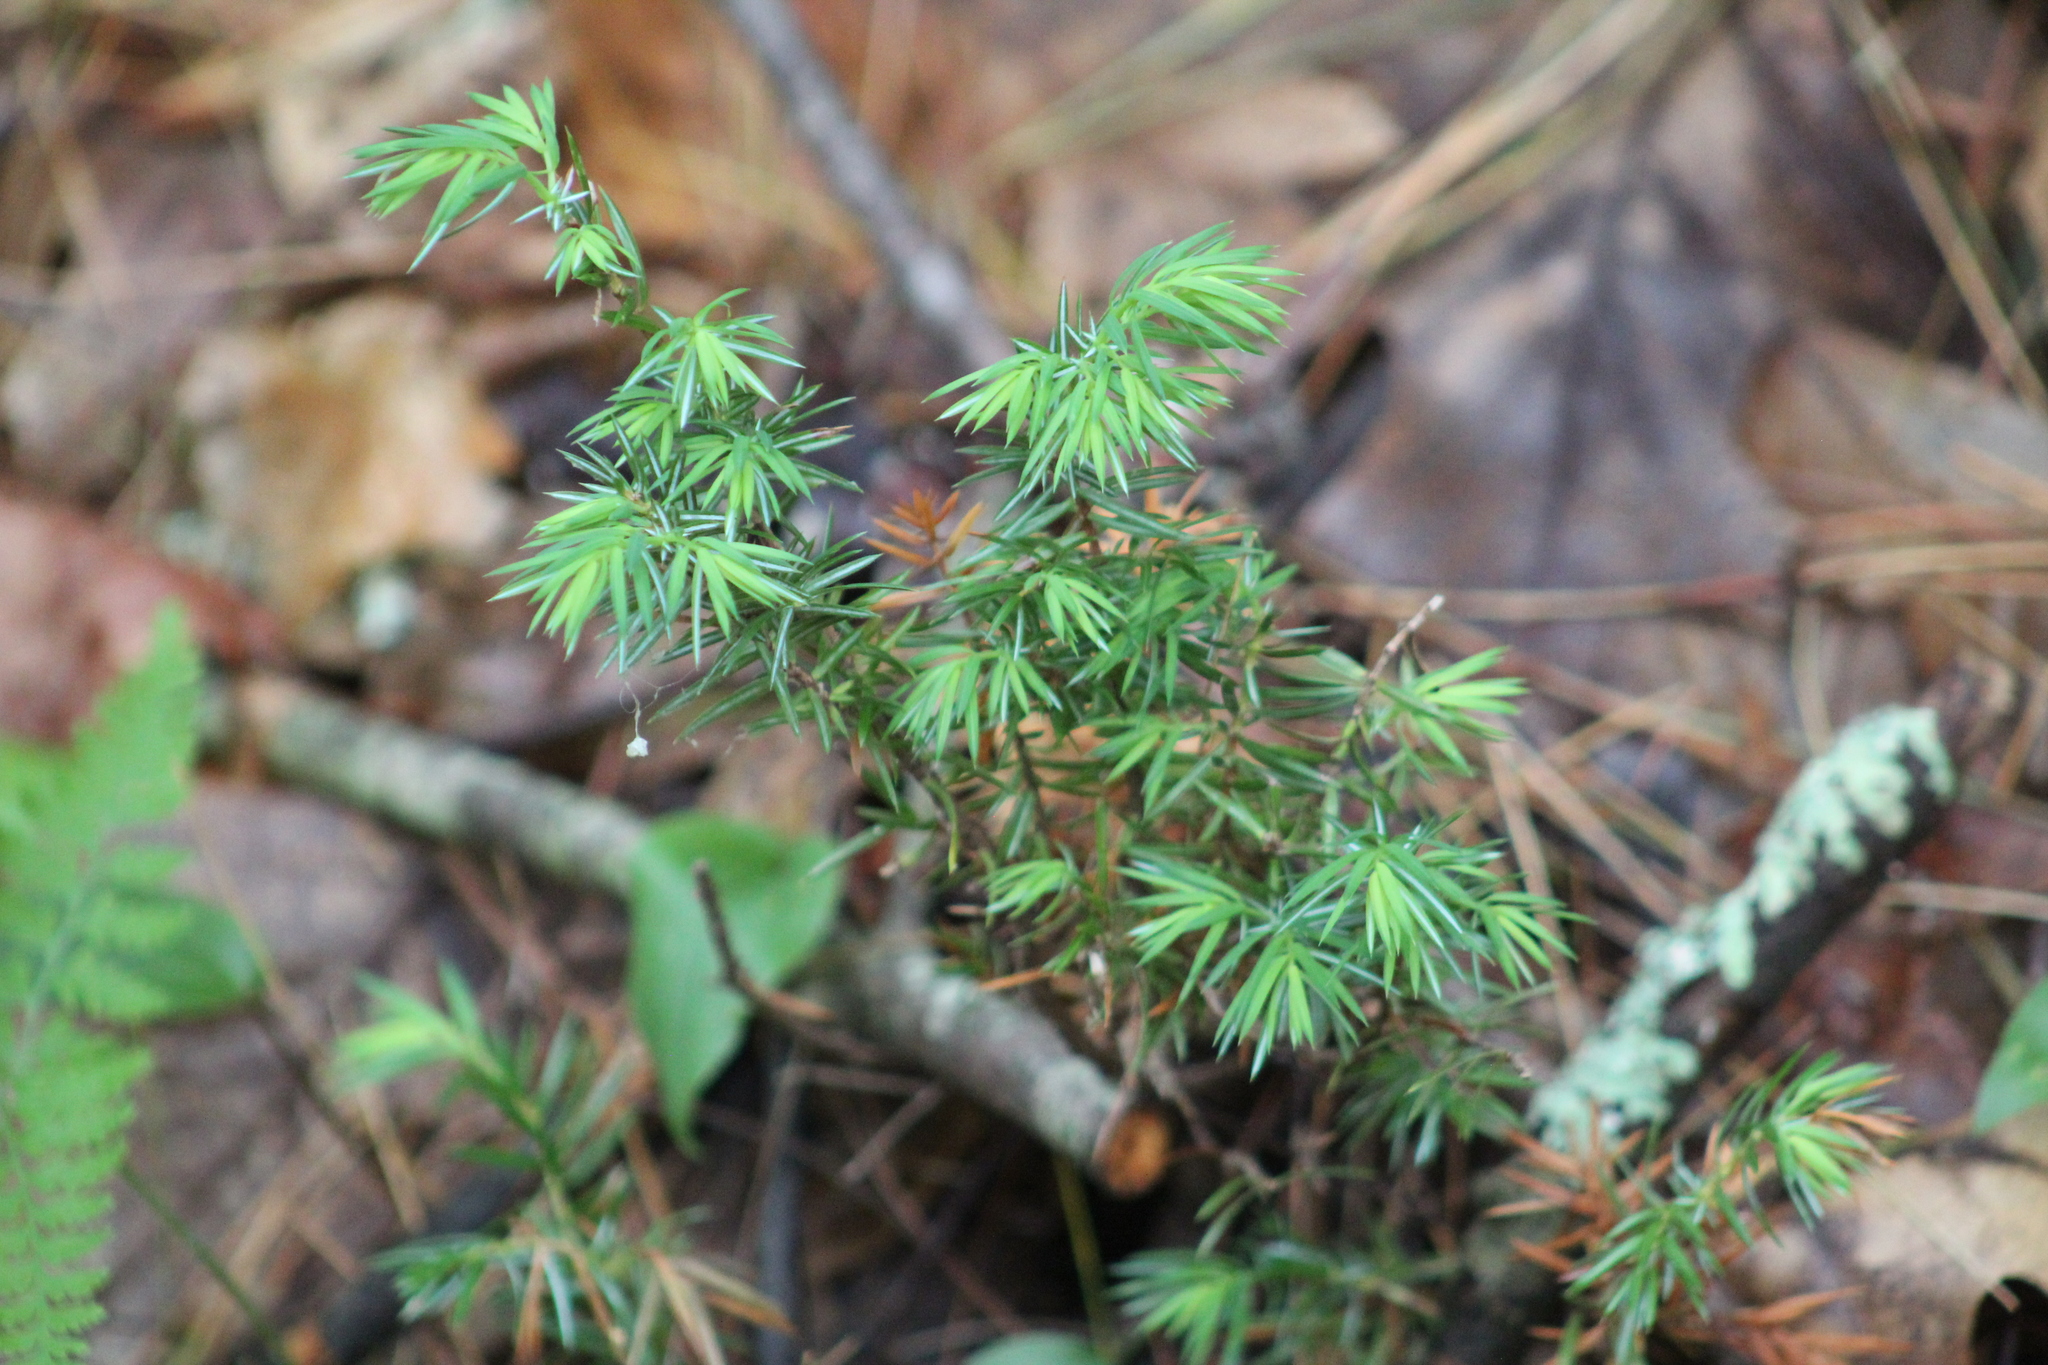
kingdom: Plantae
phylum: Tracheophyta
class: Pinopsida
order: Pinales
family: Cupressaceae
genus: Juniperus
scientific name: Juniperus communis
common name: Common juniper
